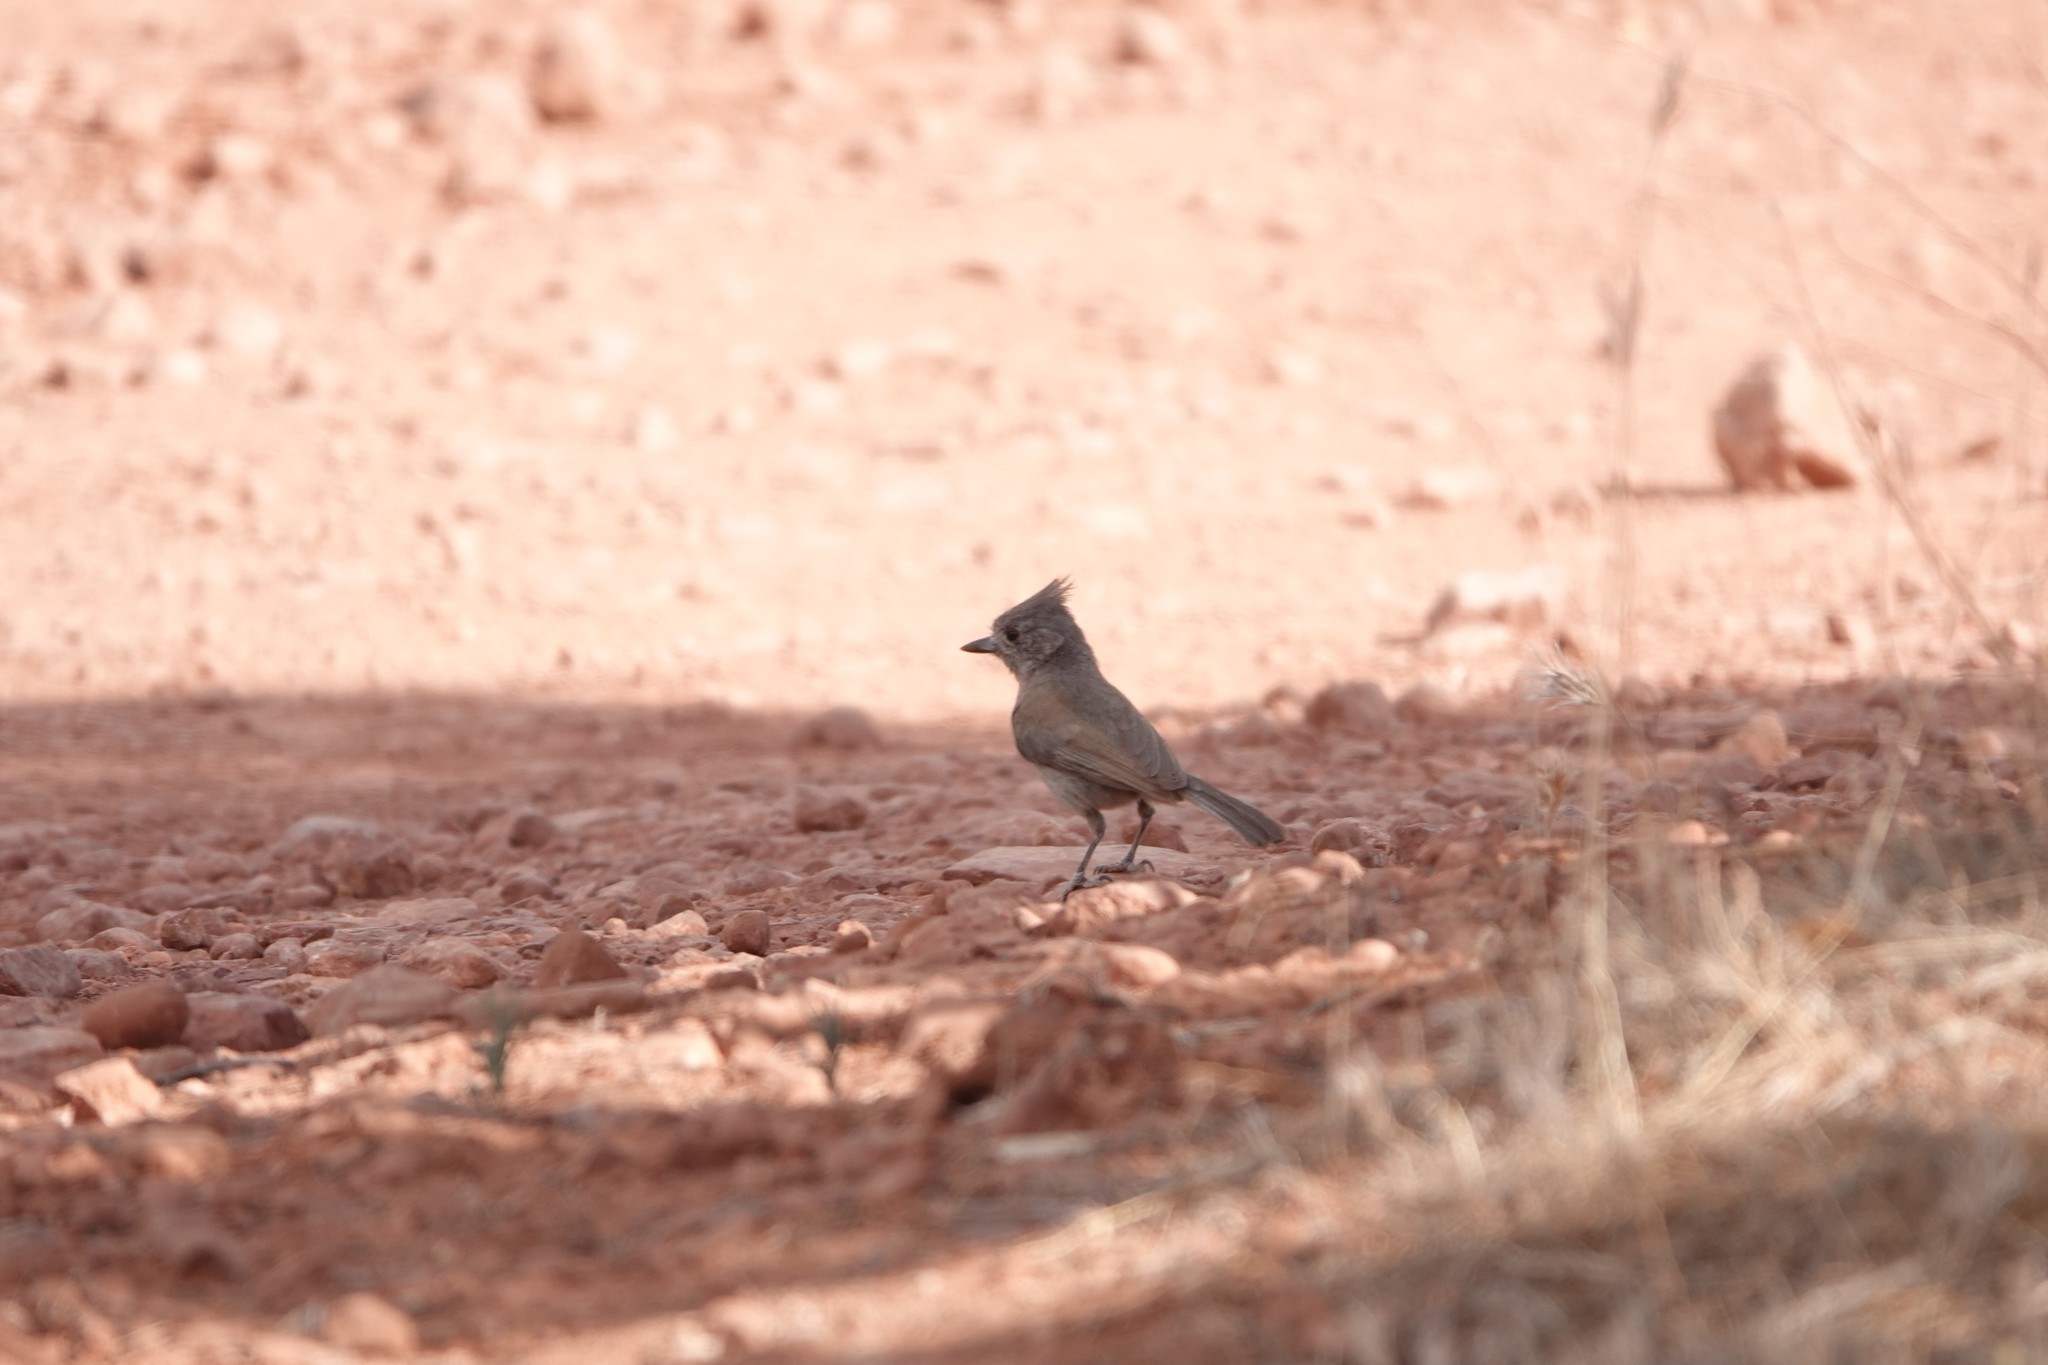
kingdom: Animalia
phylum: Chordata
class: Aves
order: Passeriformes
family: Paridae
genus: Baeolophus
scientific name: Baeolophus ridgwayi
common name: Juniper titmouse
